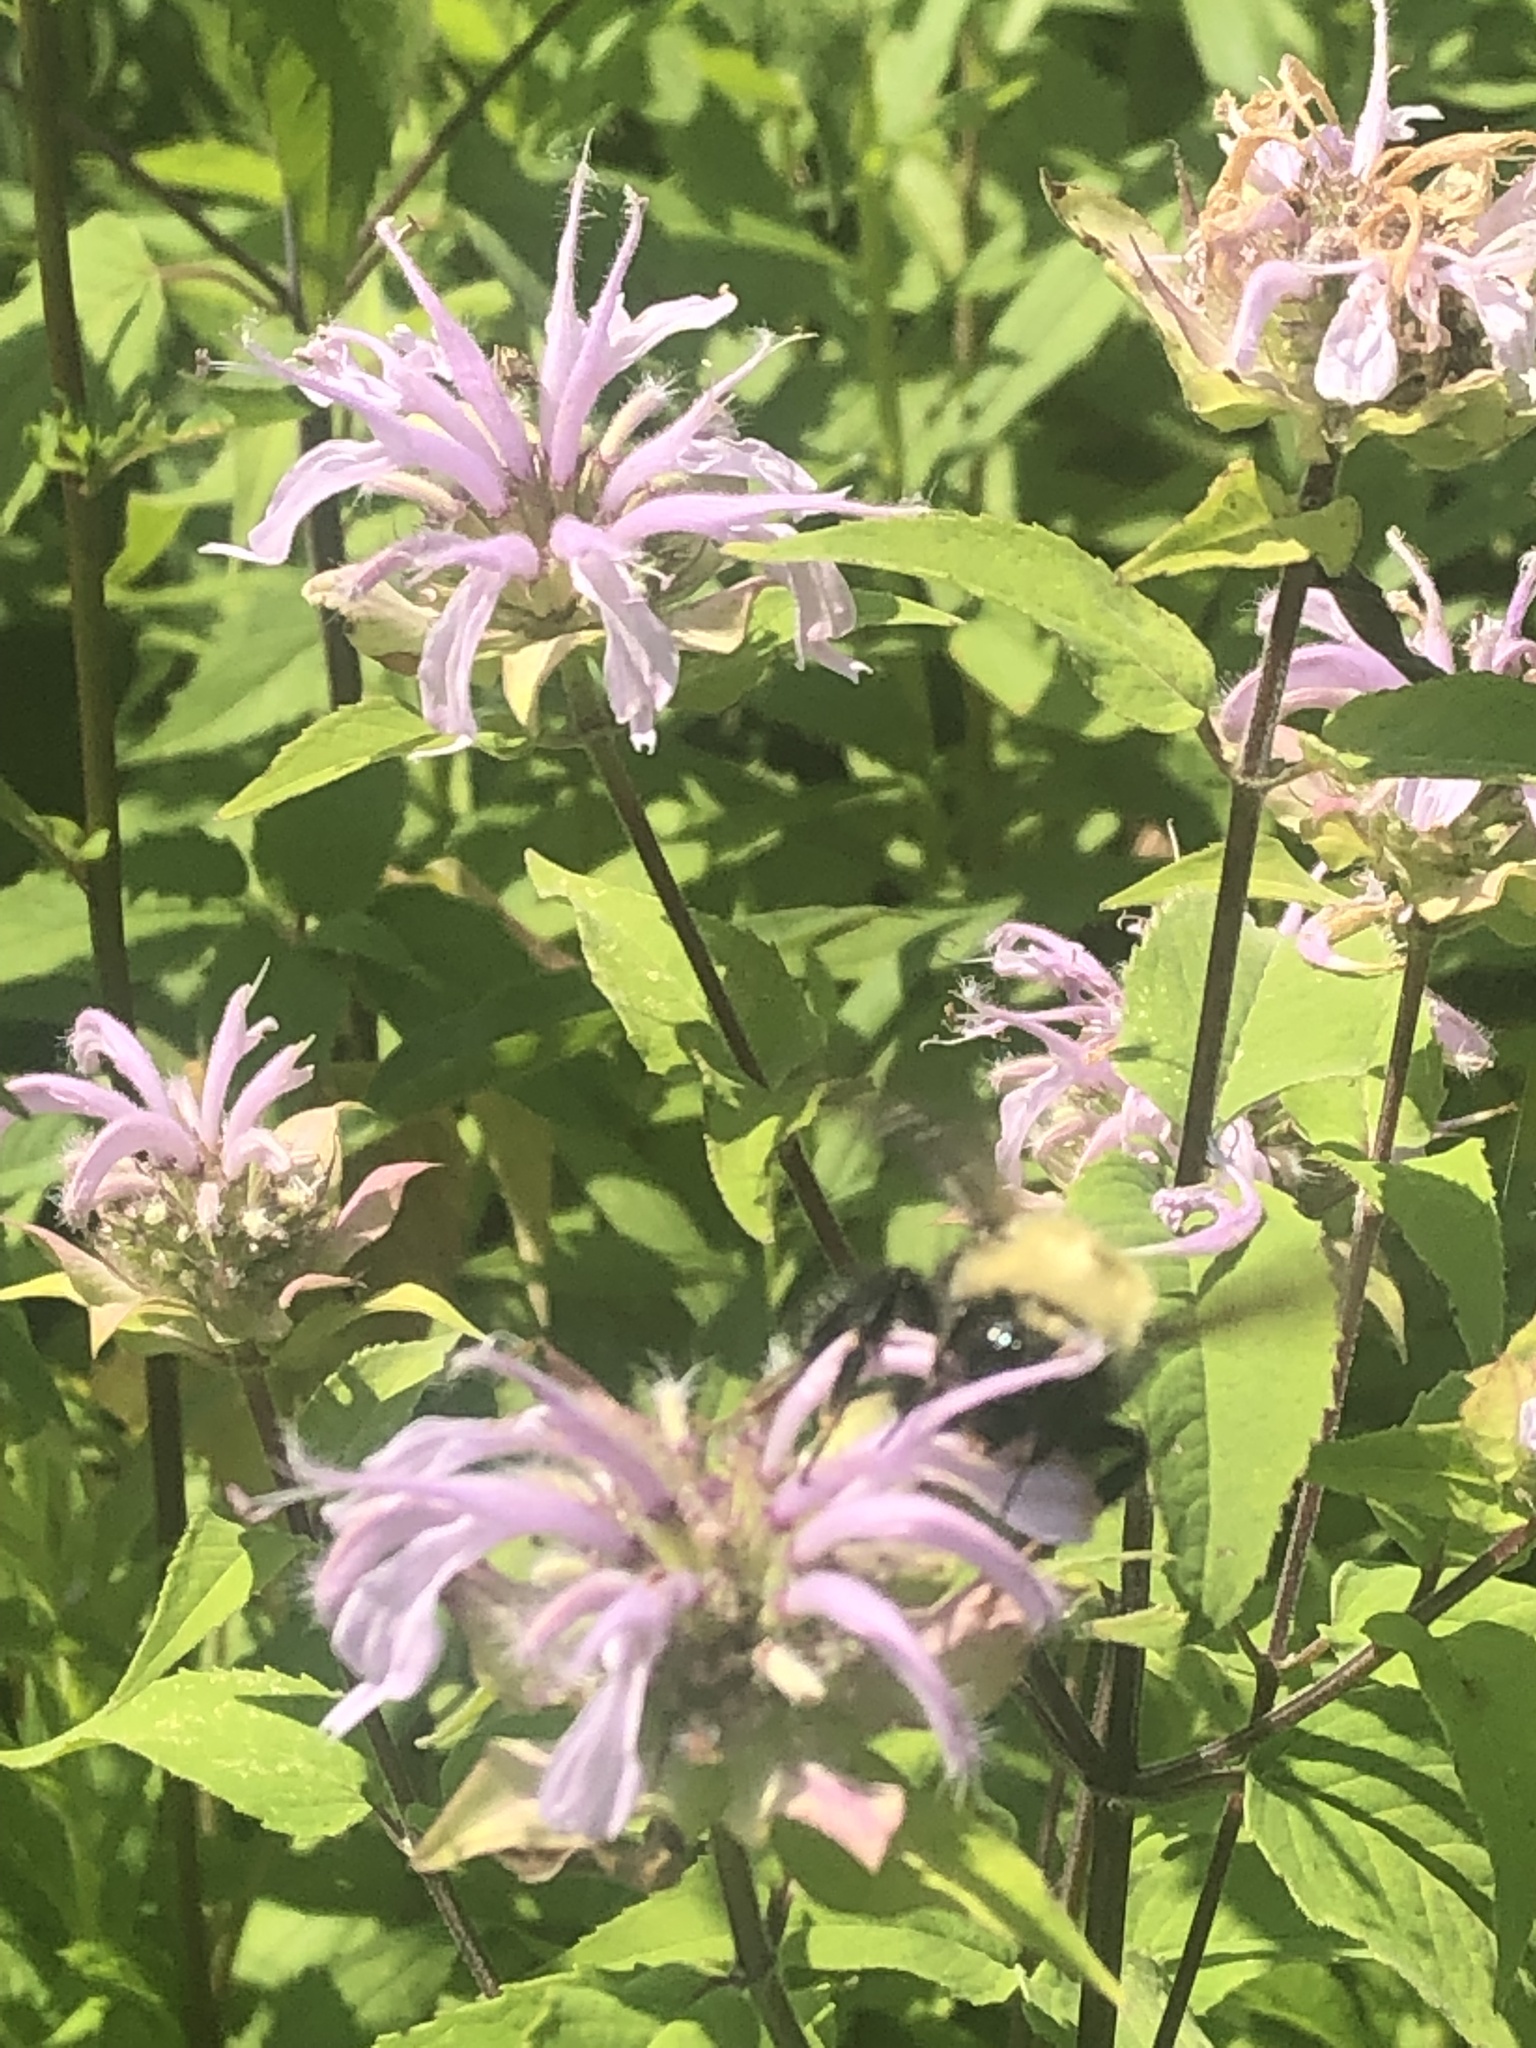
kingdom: Plantae
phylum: Tracheophyta
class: Magnoliopsida
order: Lamiales
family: Lamiaceae
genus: Monarda
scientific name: Monarda fistulosa
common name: Purple beebalm
